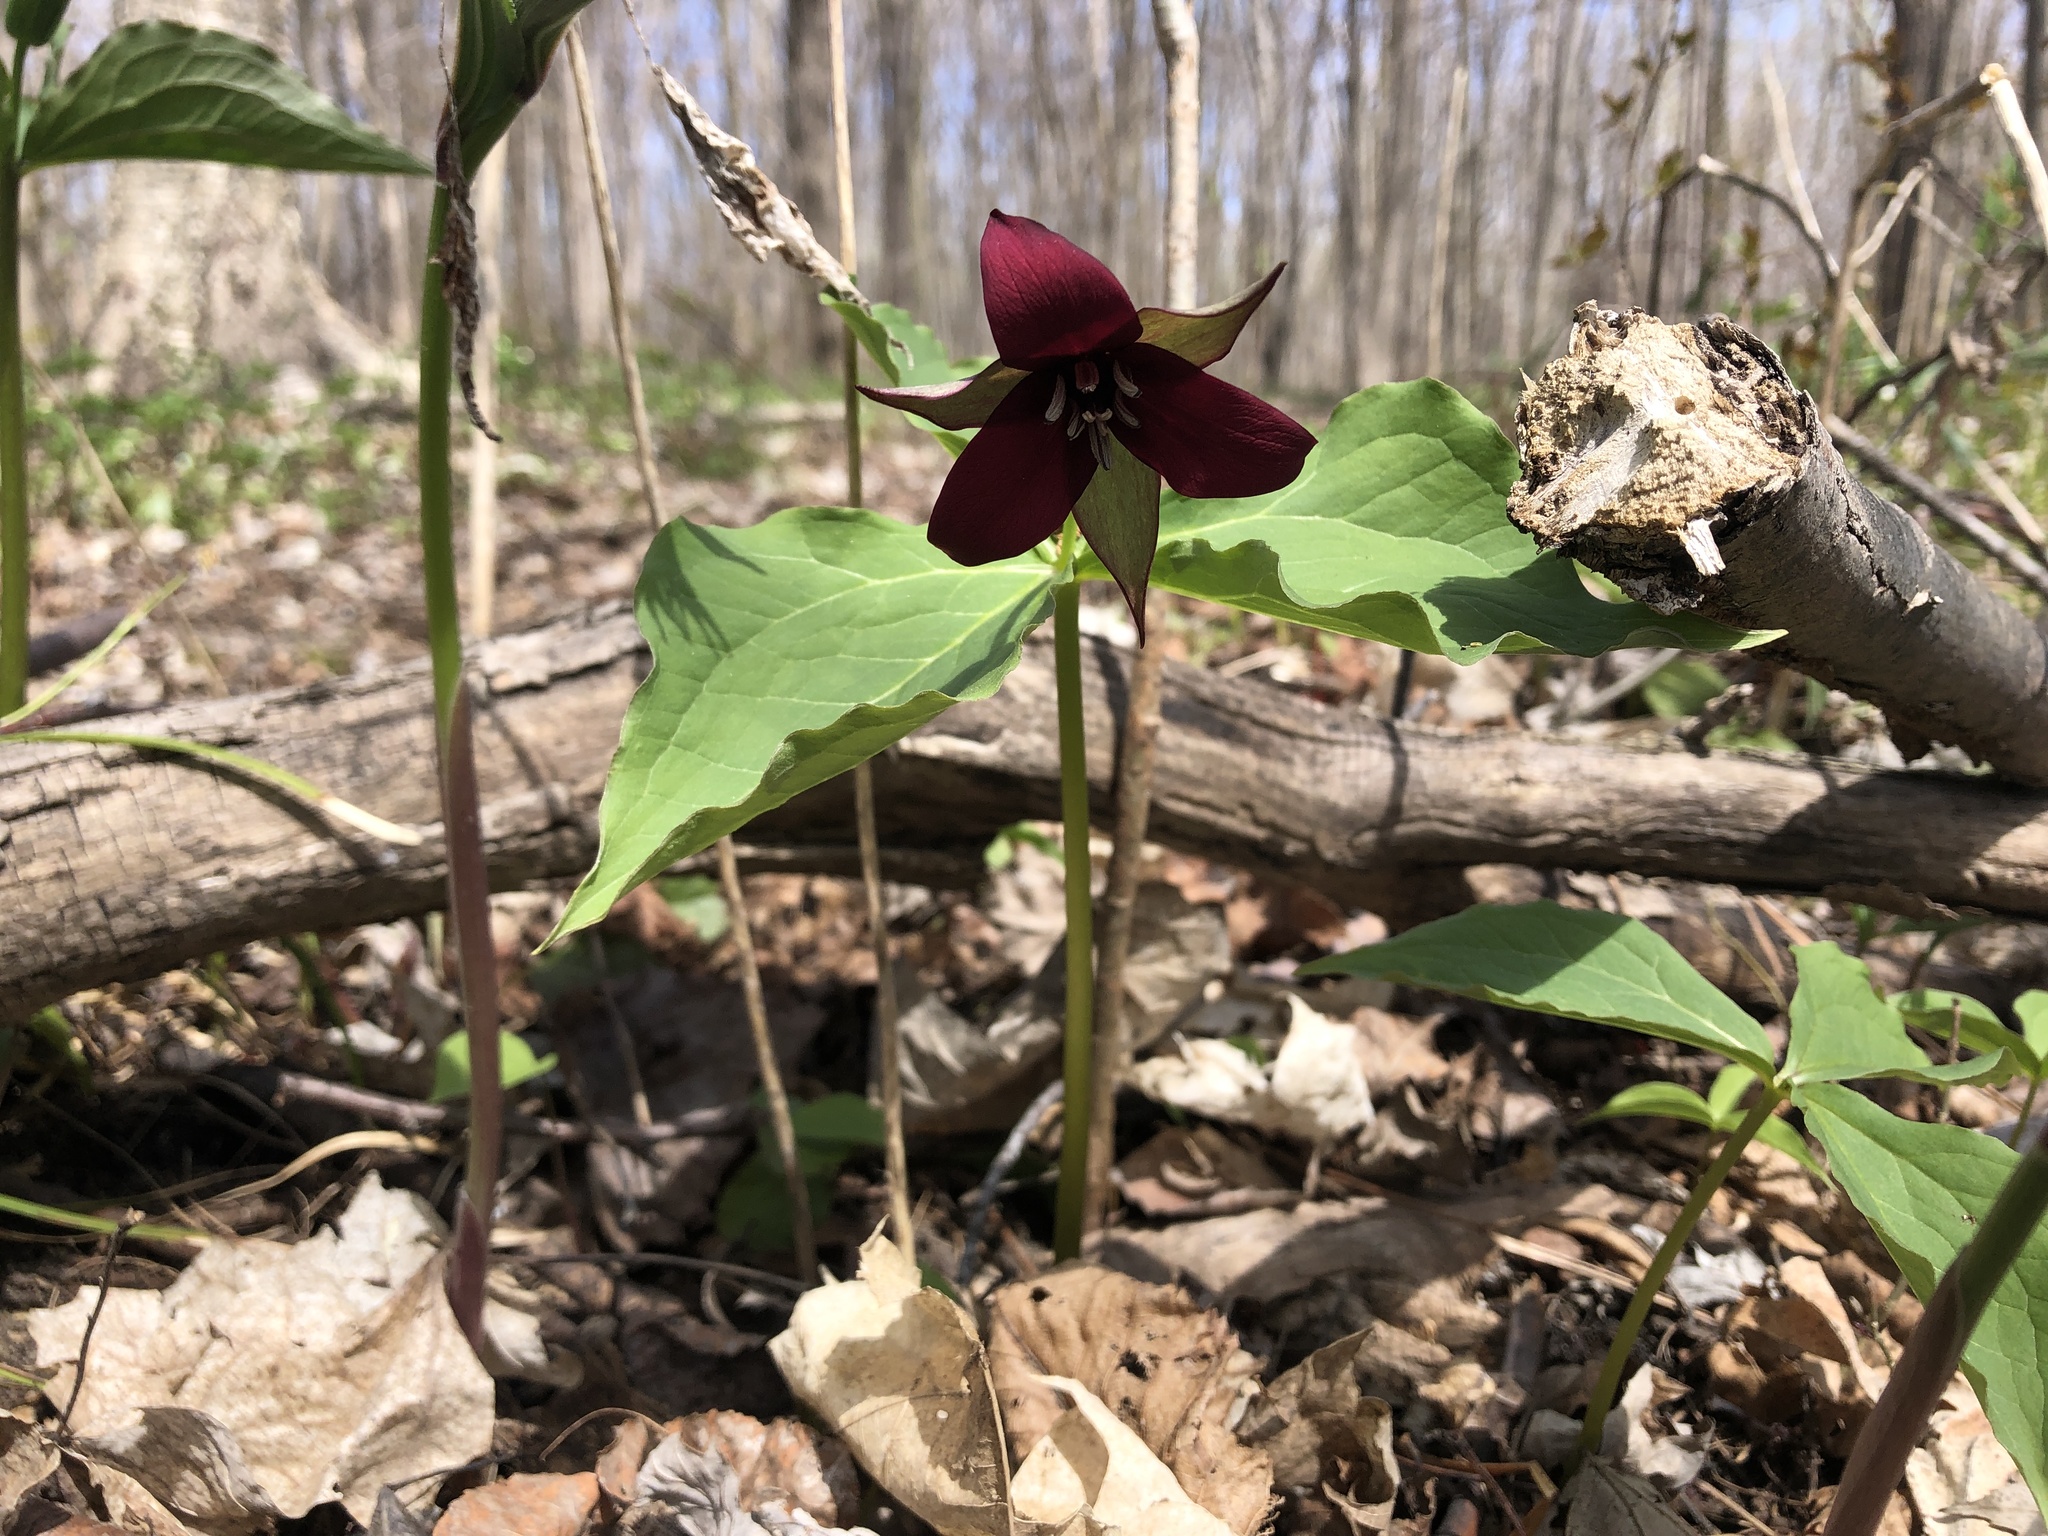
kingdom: Plantae
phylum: Tracheophyta
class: Liliopsida
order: Liliales
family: Melanthiaceae
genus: Trillium
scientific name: Trillium erectum
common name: Purple trillium
